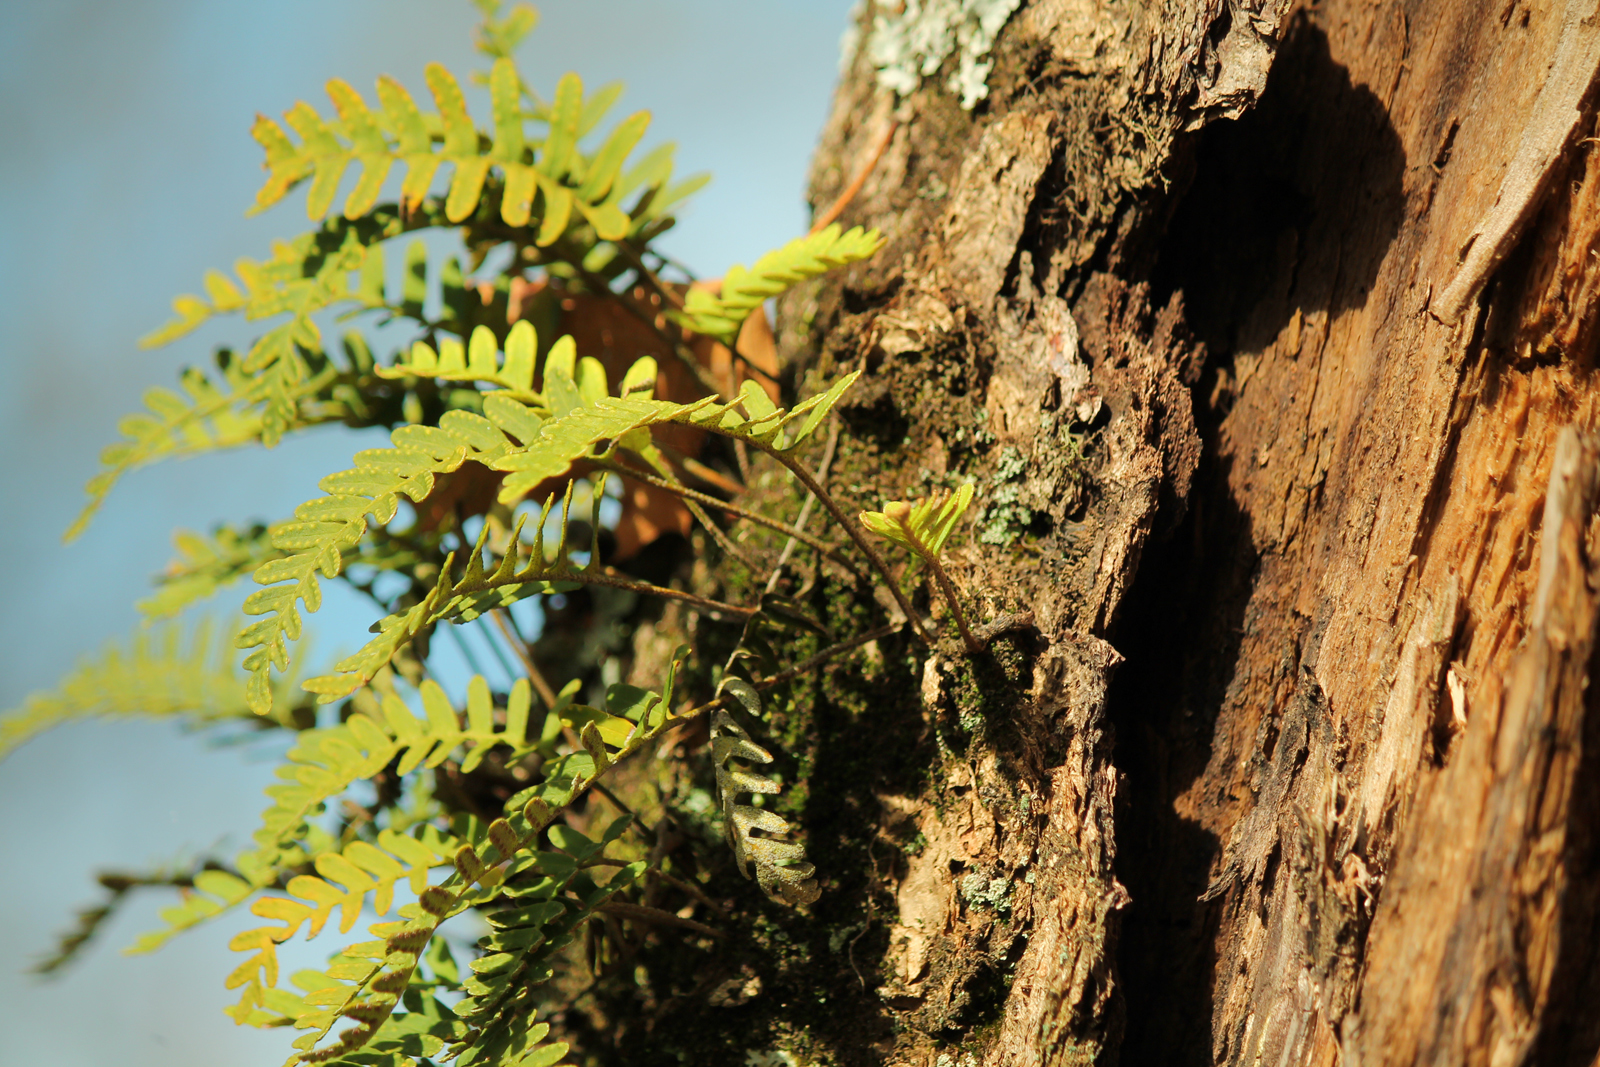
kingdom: Plantae
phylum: Tracheophyta
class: Polypodiopsida
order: Polypodiales
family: Polypodiaceae
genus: Pleopeltis
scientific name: Pleopeltis michauxiana
